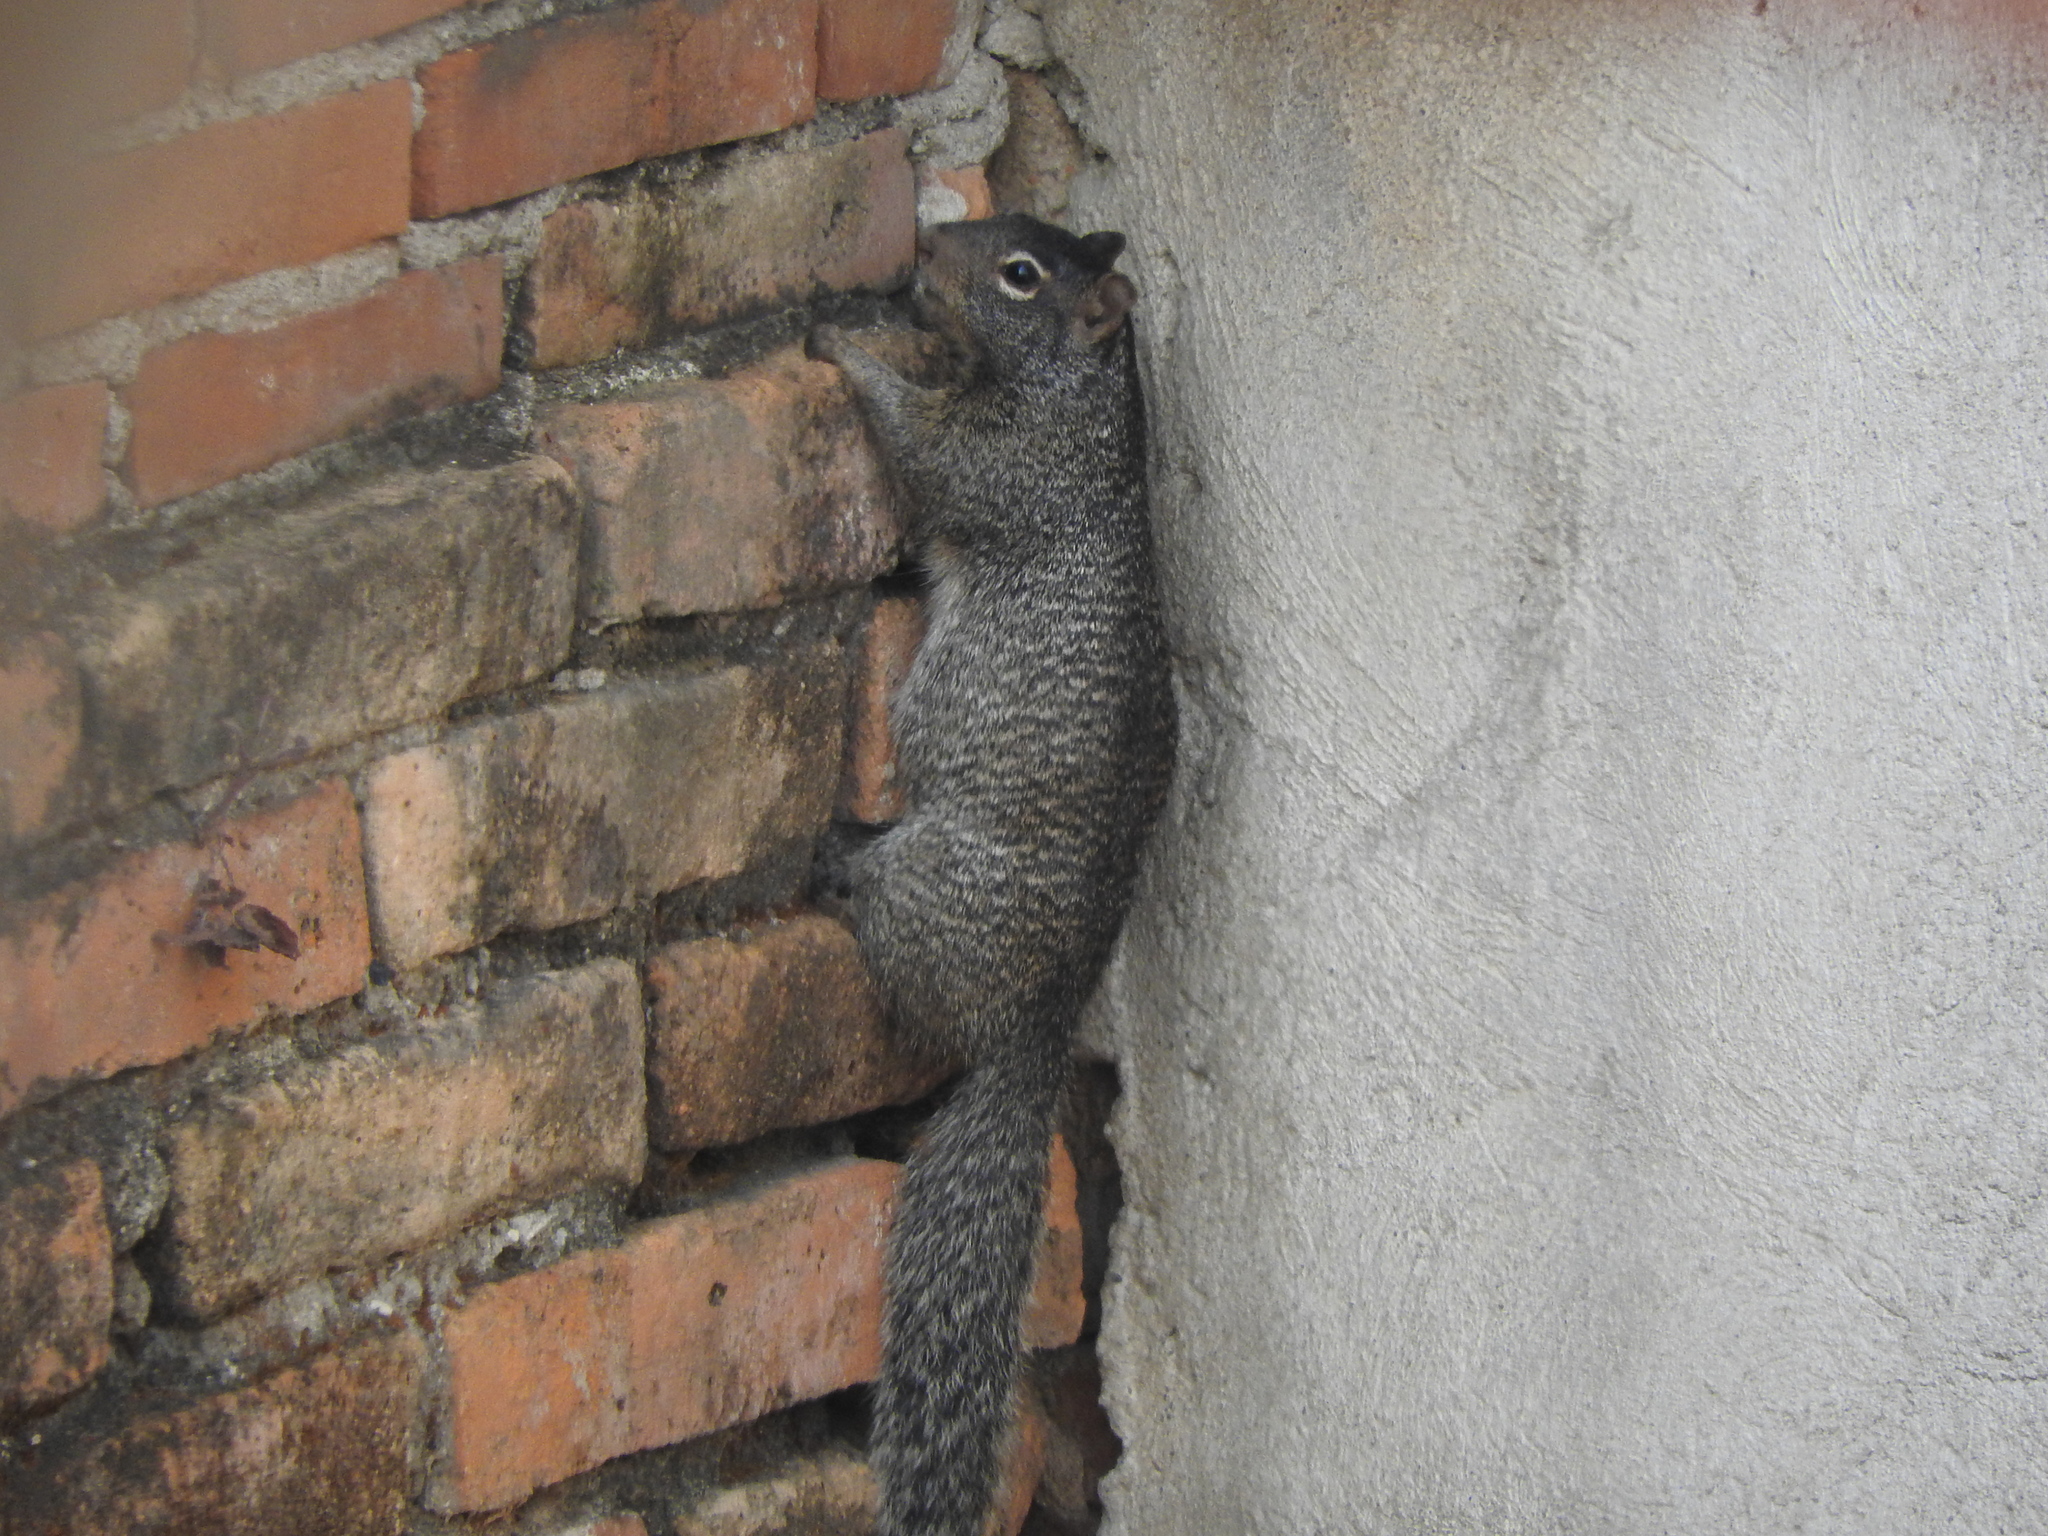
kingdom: Animalia
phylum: Chordata
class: Mammalia
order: Rodentia
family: Sciuridae
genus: Otospermophilus
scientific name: Otospermophilus variegatus
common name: Rock squirrel
